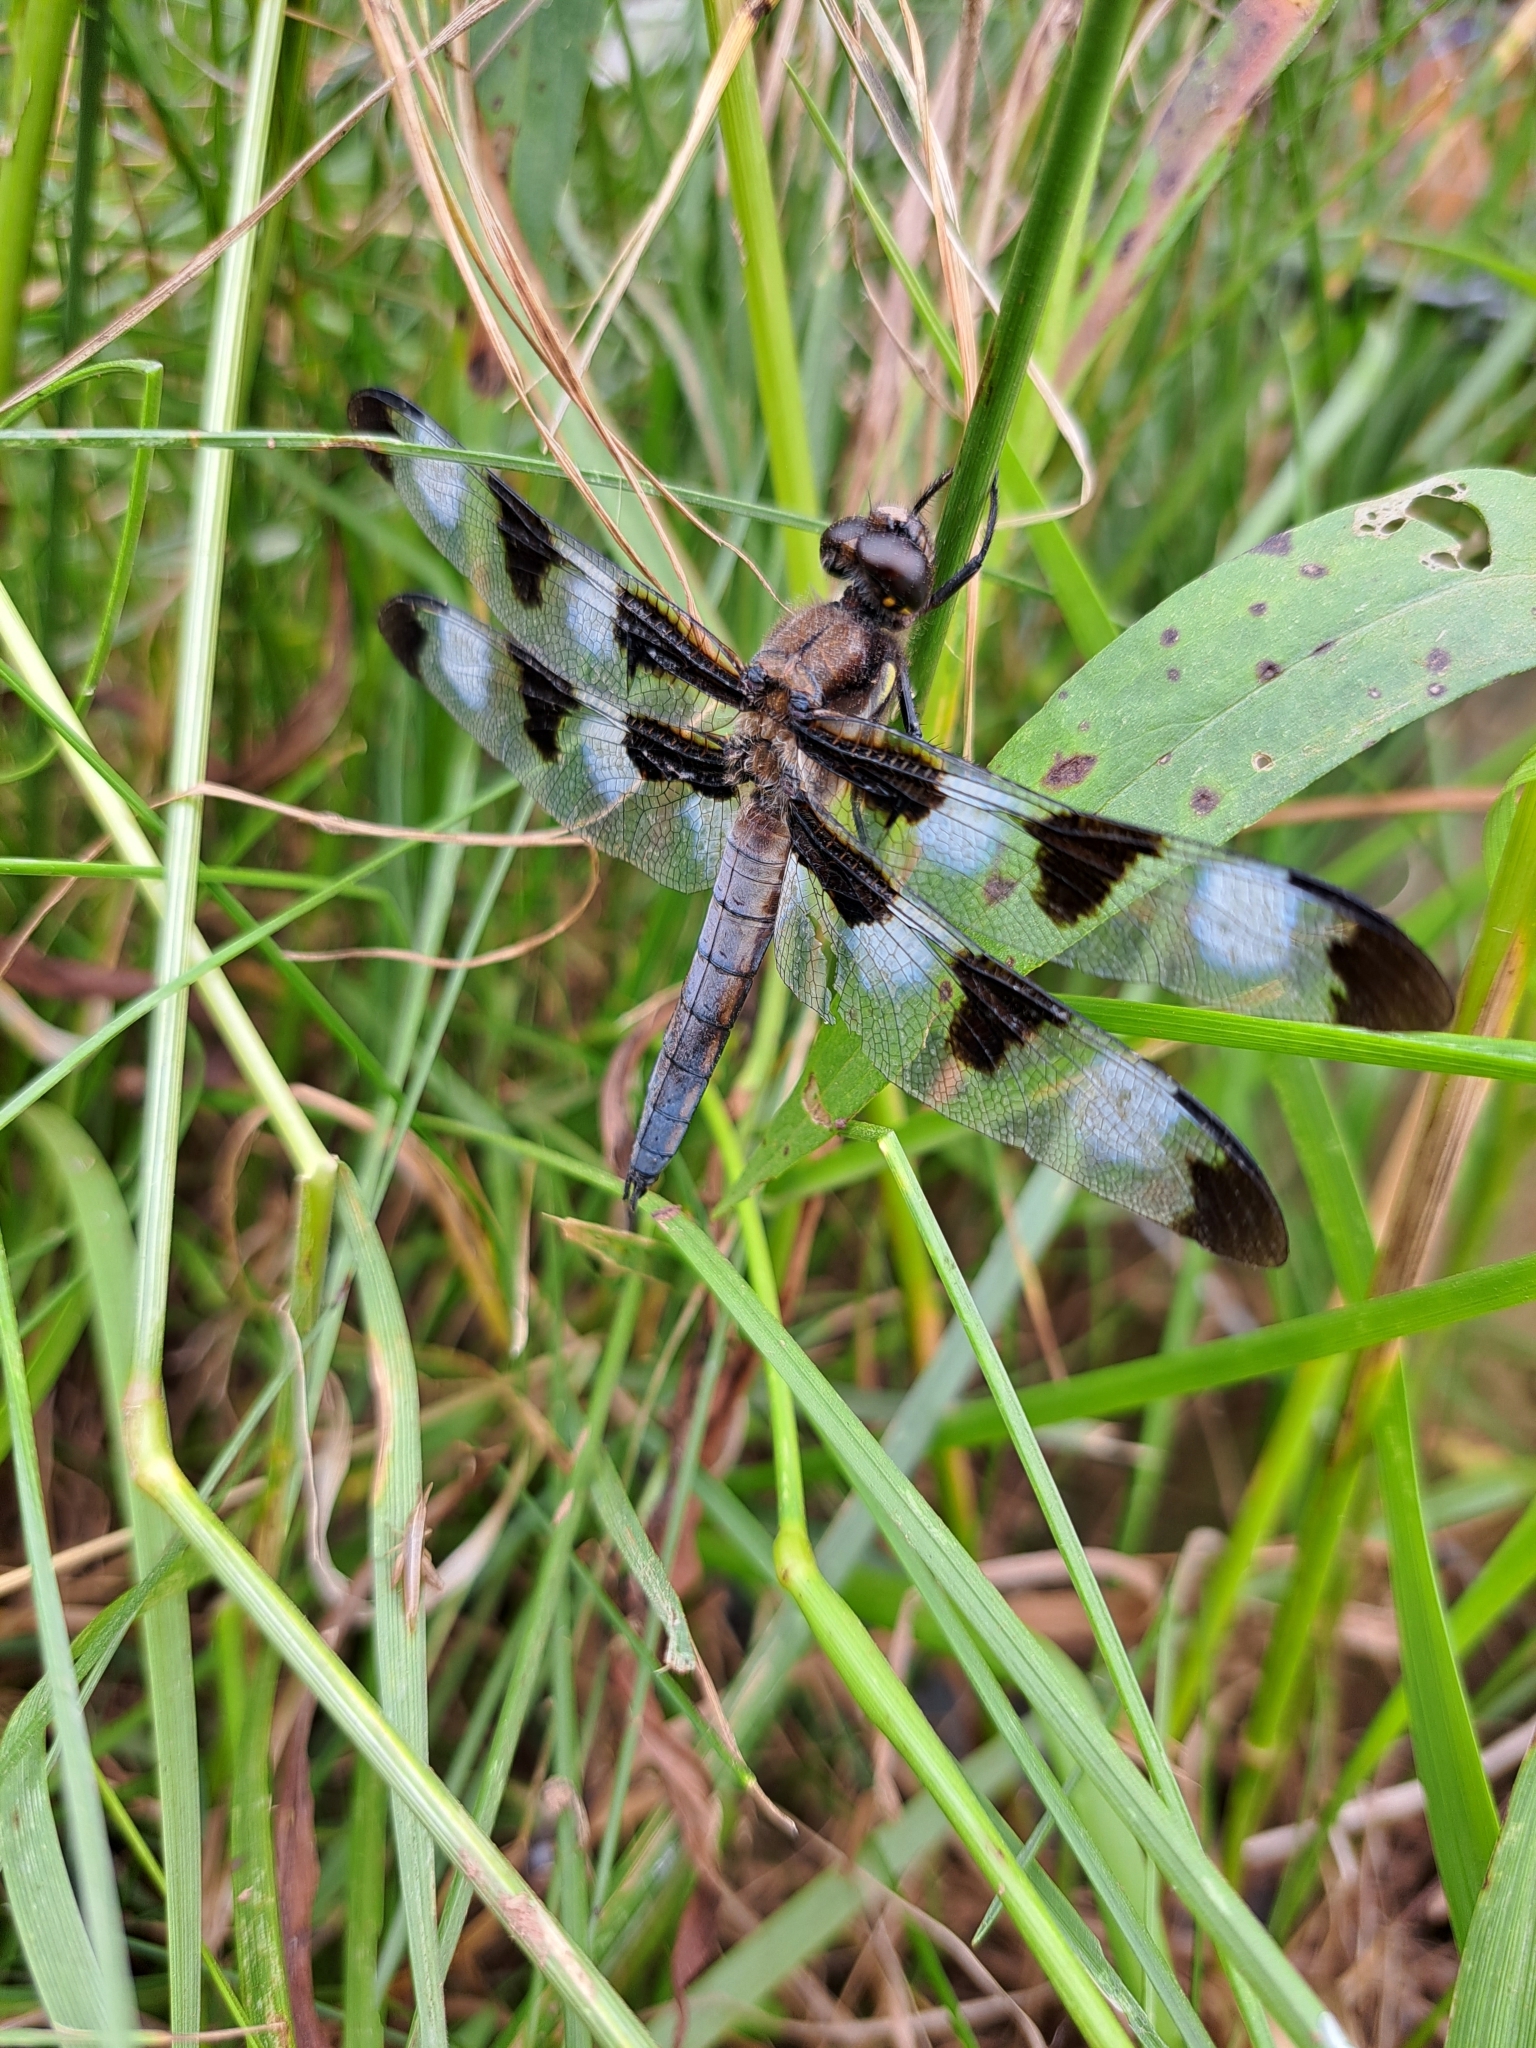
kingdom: Animalia
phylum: Arthropoda
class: Insecta
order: Odonata
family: Libellulidae
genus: Libellula
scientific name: Libellula pulchella
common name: Twelve-spotted skimmer
